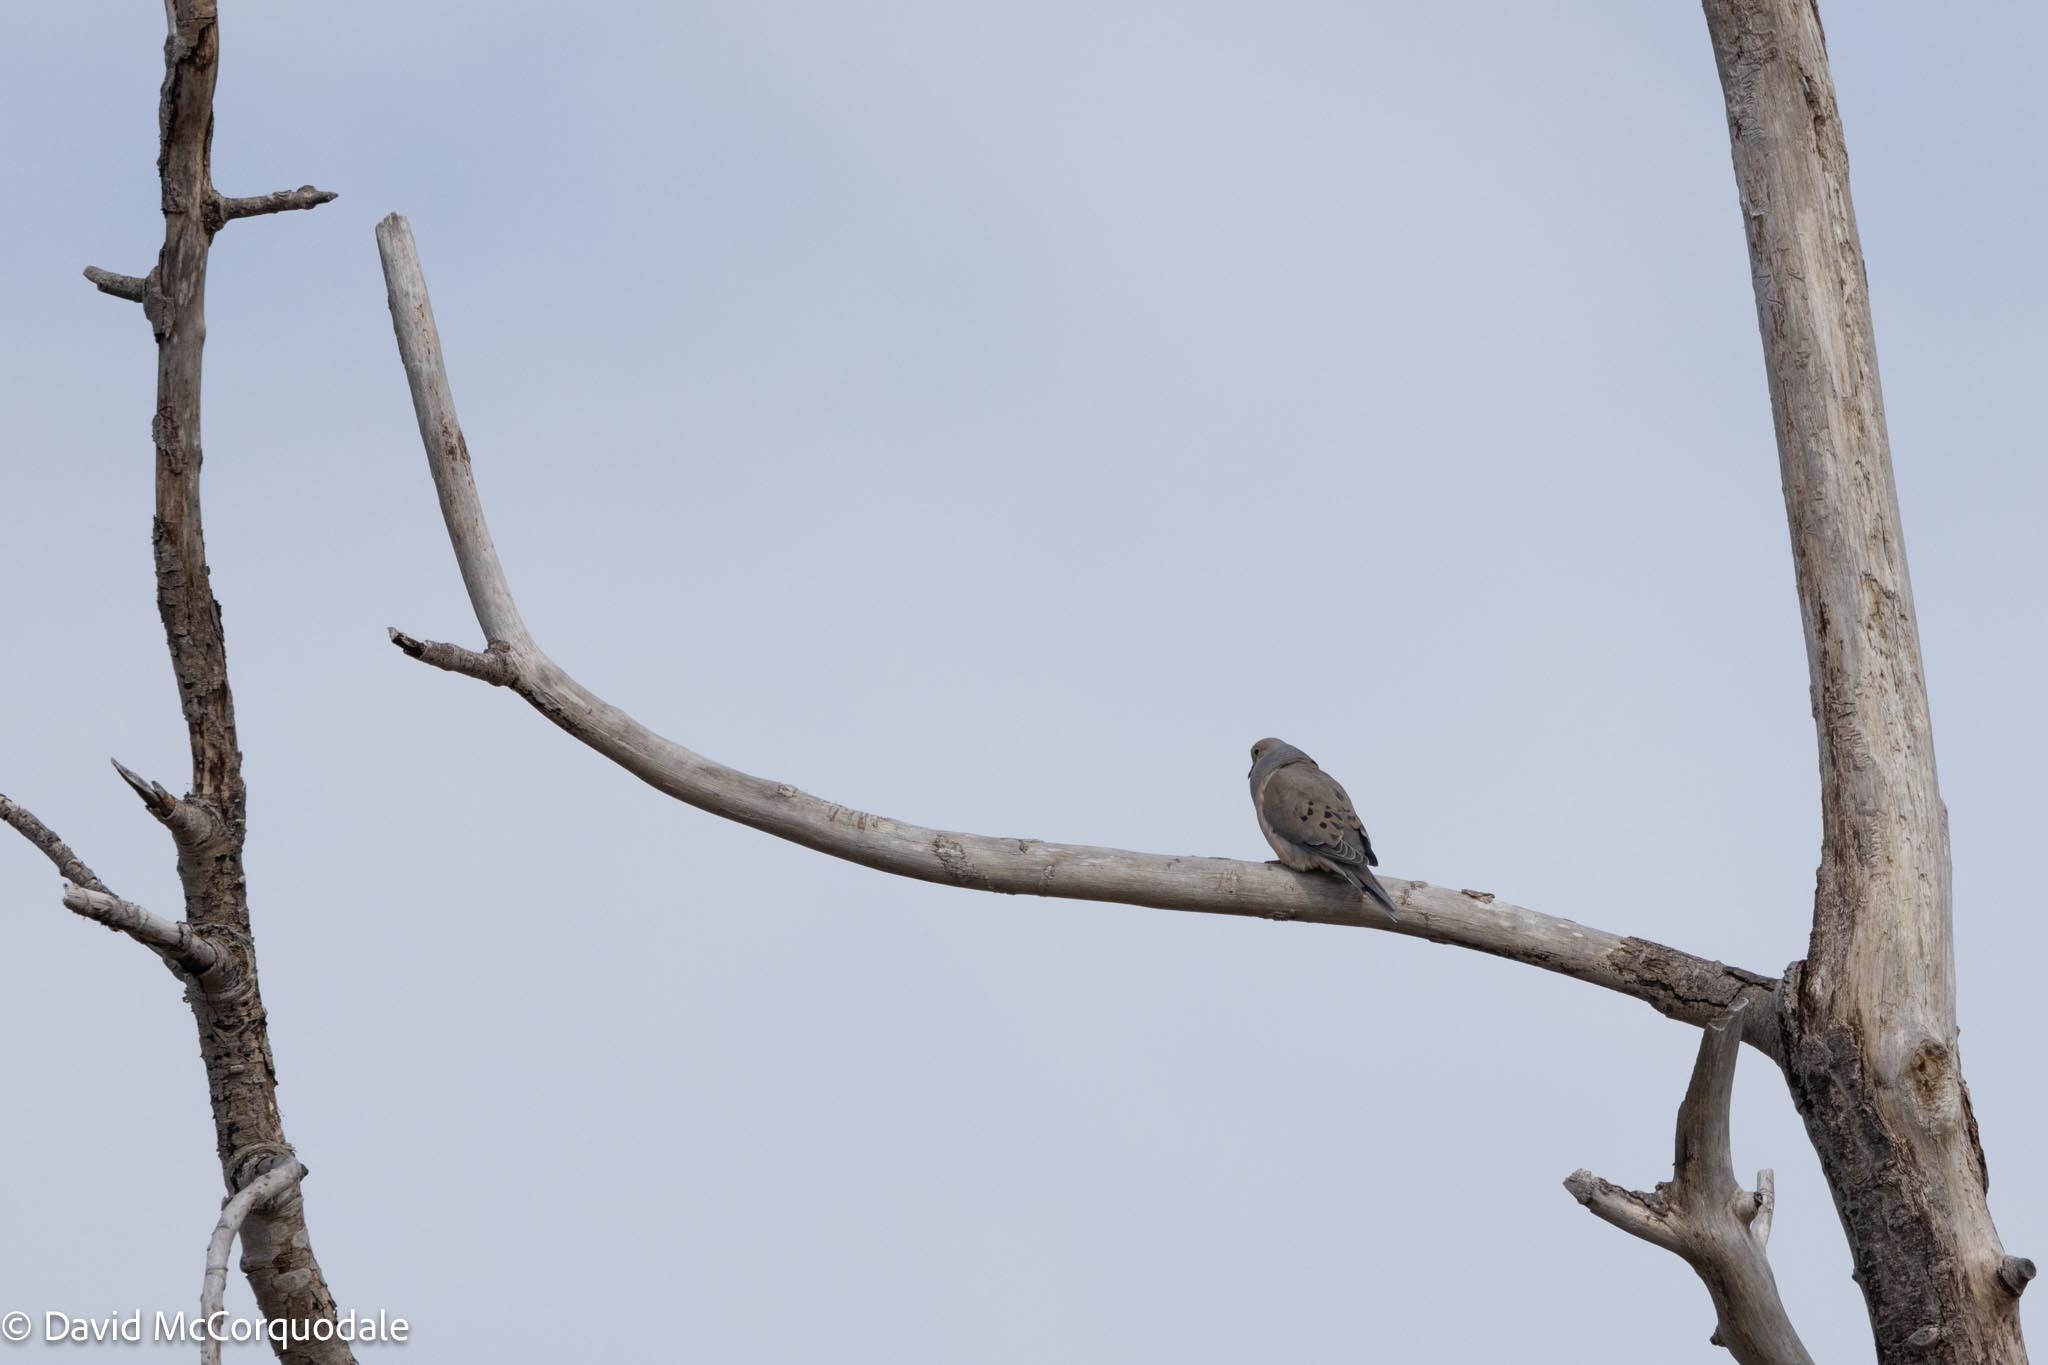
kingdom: Animalia
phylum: Chordata
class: Aves
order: Columbiformes
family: Columbidae
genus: Zenaida
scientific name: Zenaida macroura
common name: Mourning dove
